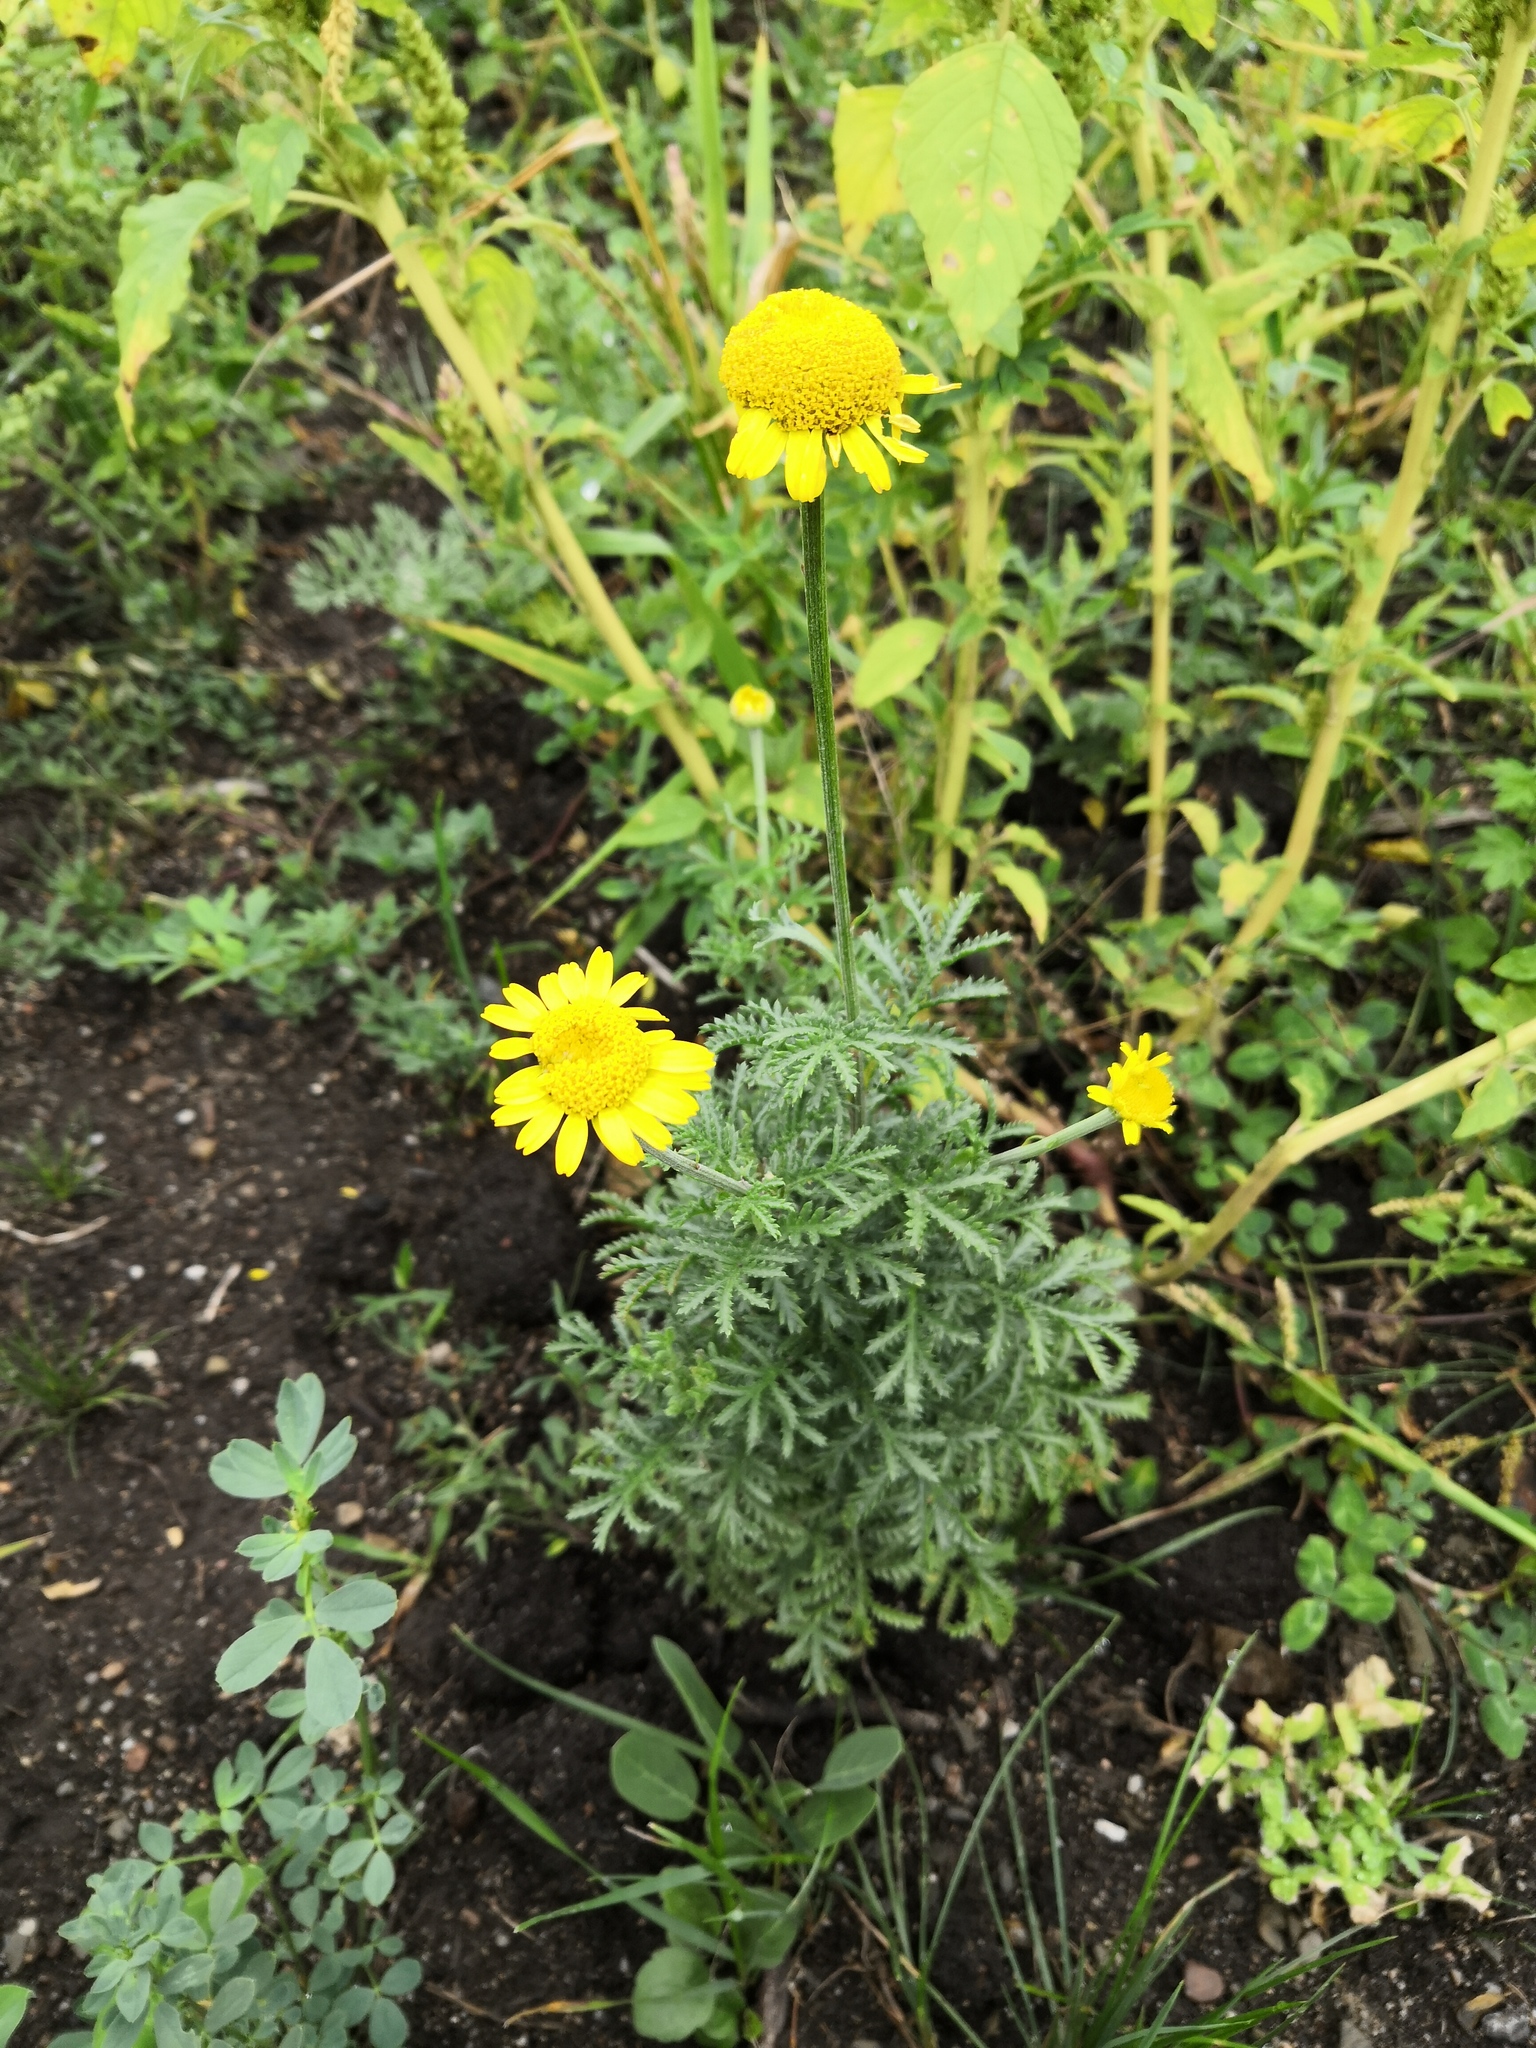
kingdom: Plantae
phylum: Tracheophyta
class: Magnoliopsida
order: Asterales
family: Asteraceae
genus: Cota
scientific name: Cota tinctoria
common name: Golden chamomile
